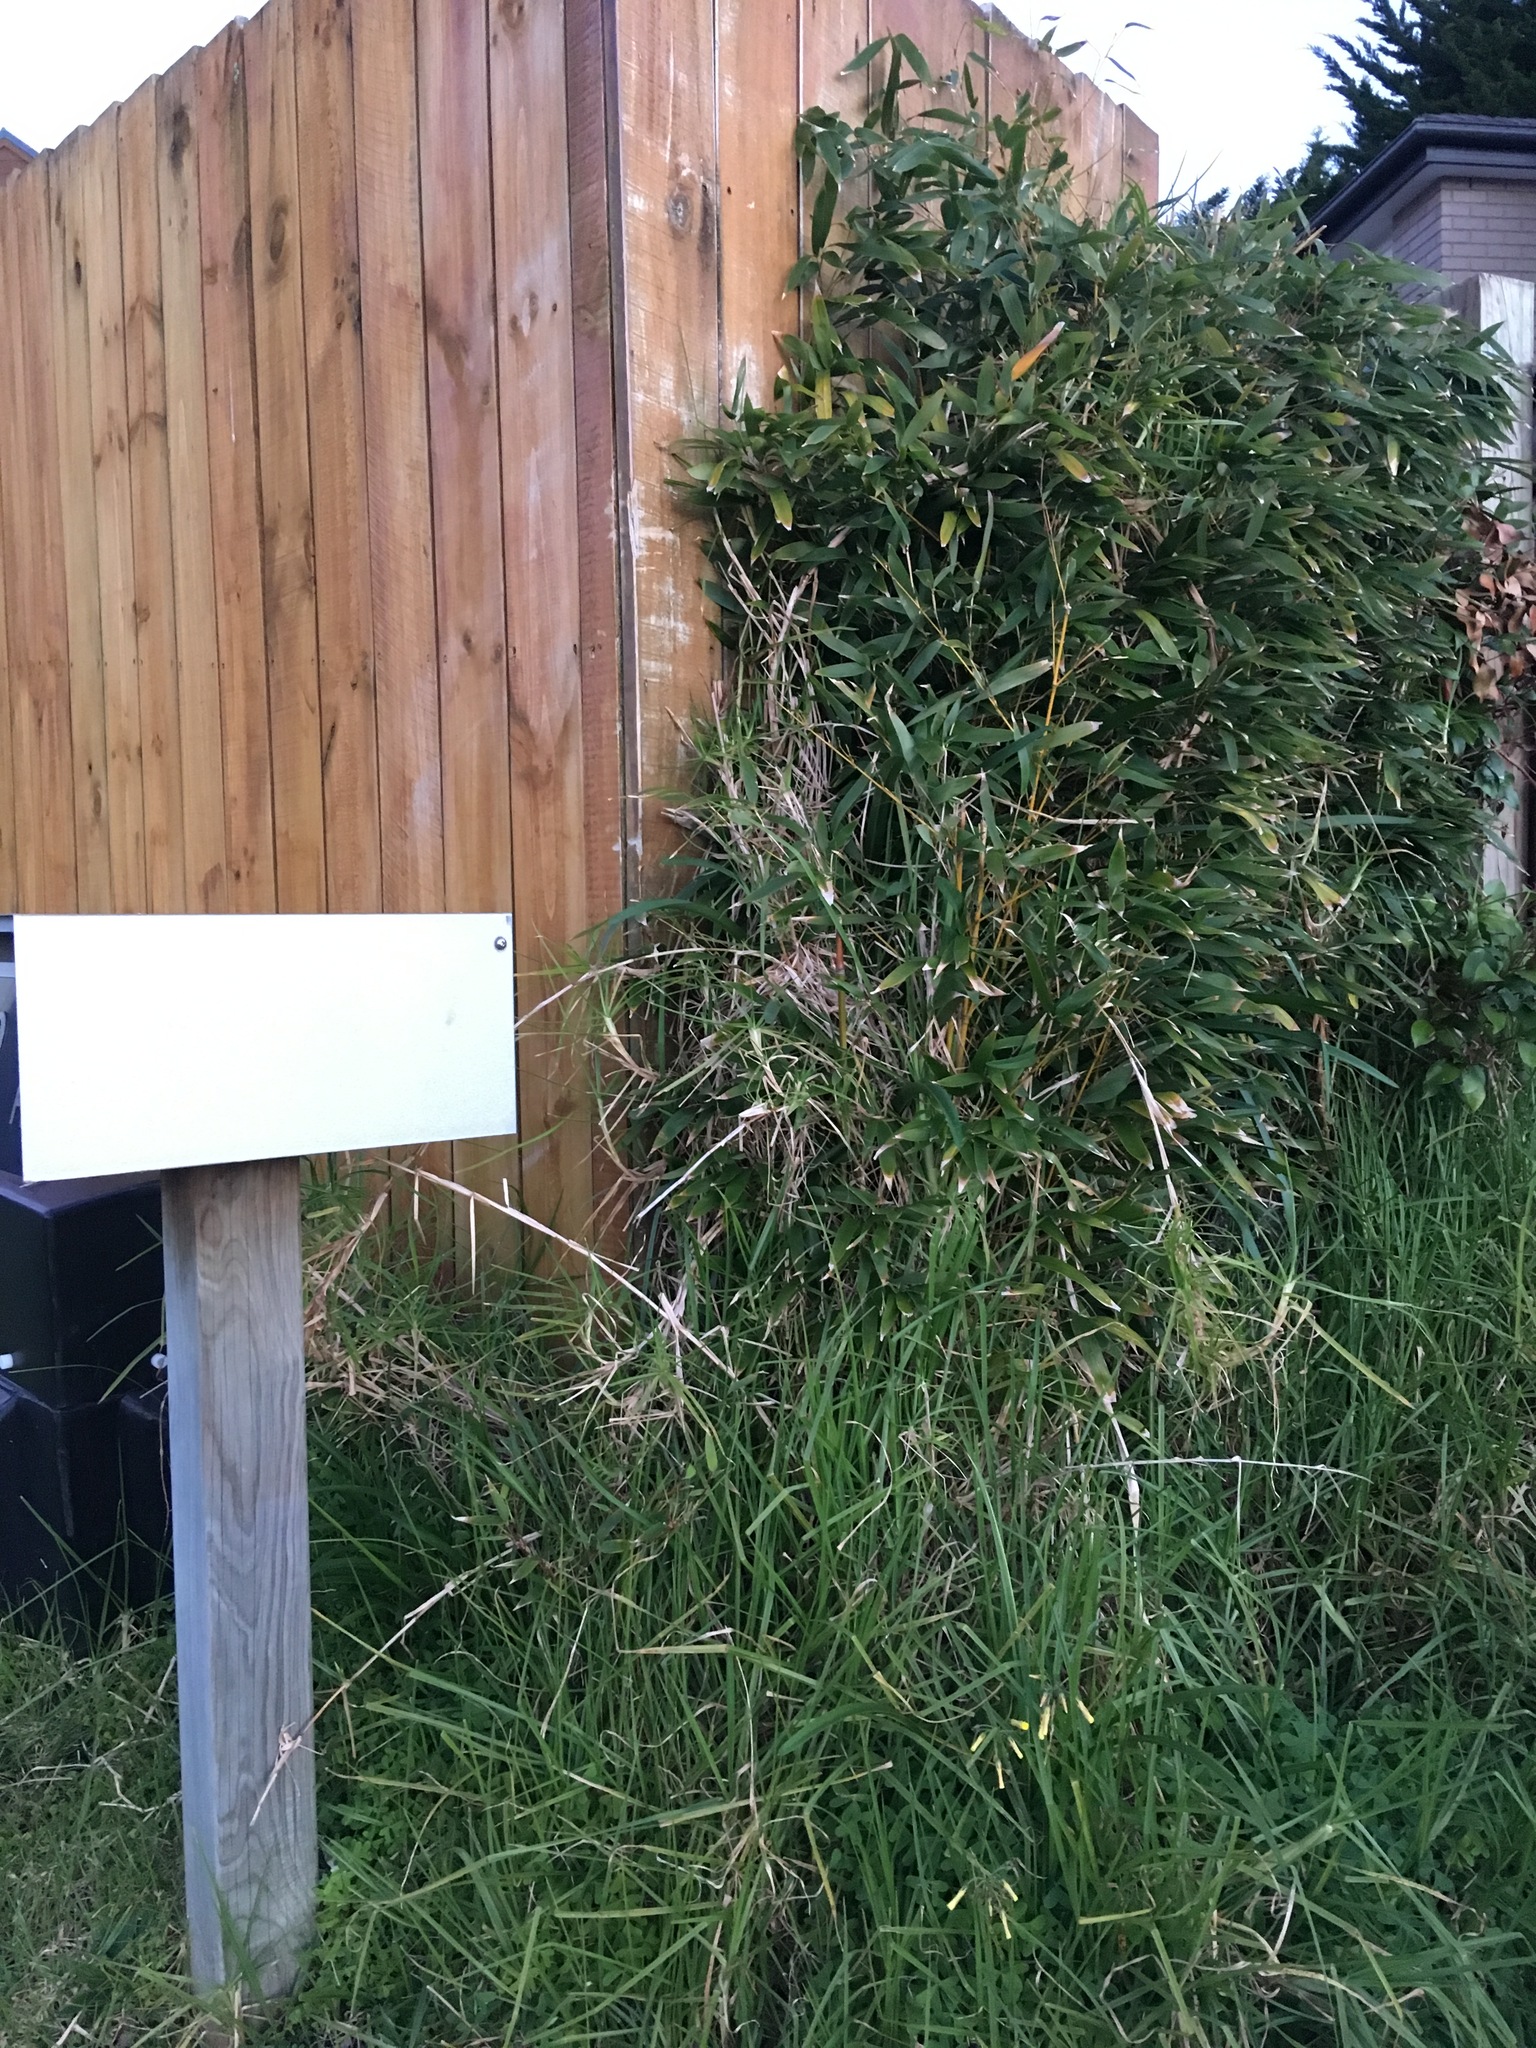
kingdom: Plantae
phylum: Tracheophyta
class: Liliopsida
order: Poales
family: Poaceae
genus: Cenchrus
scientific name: Cenchrus clandestinus
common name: Kikuyugrass
